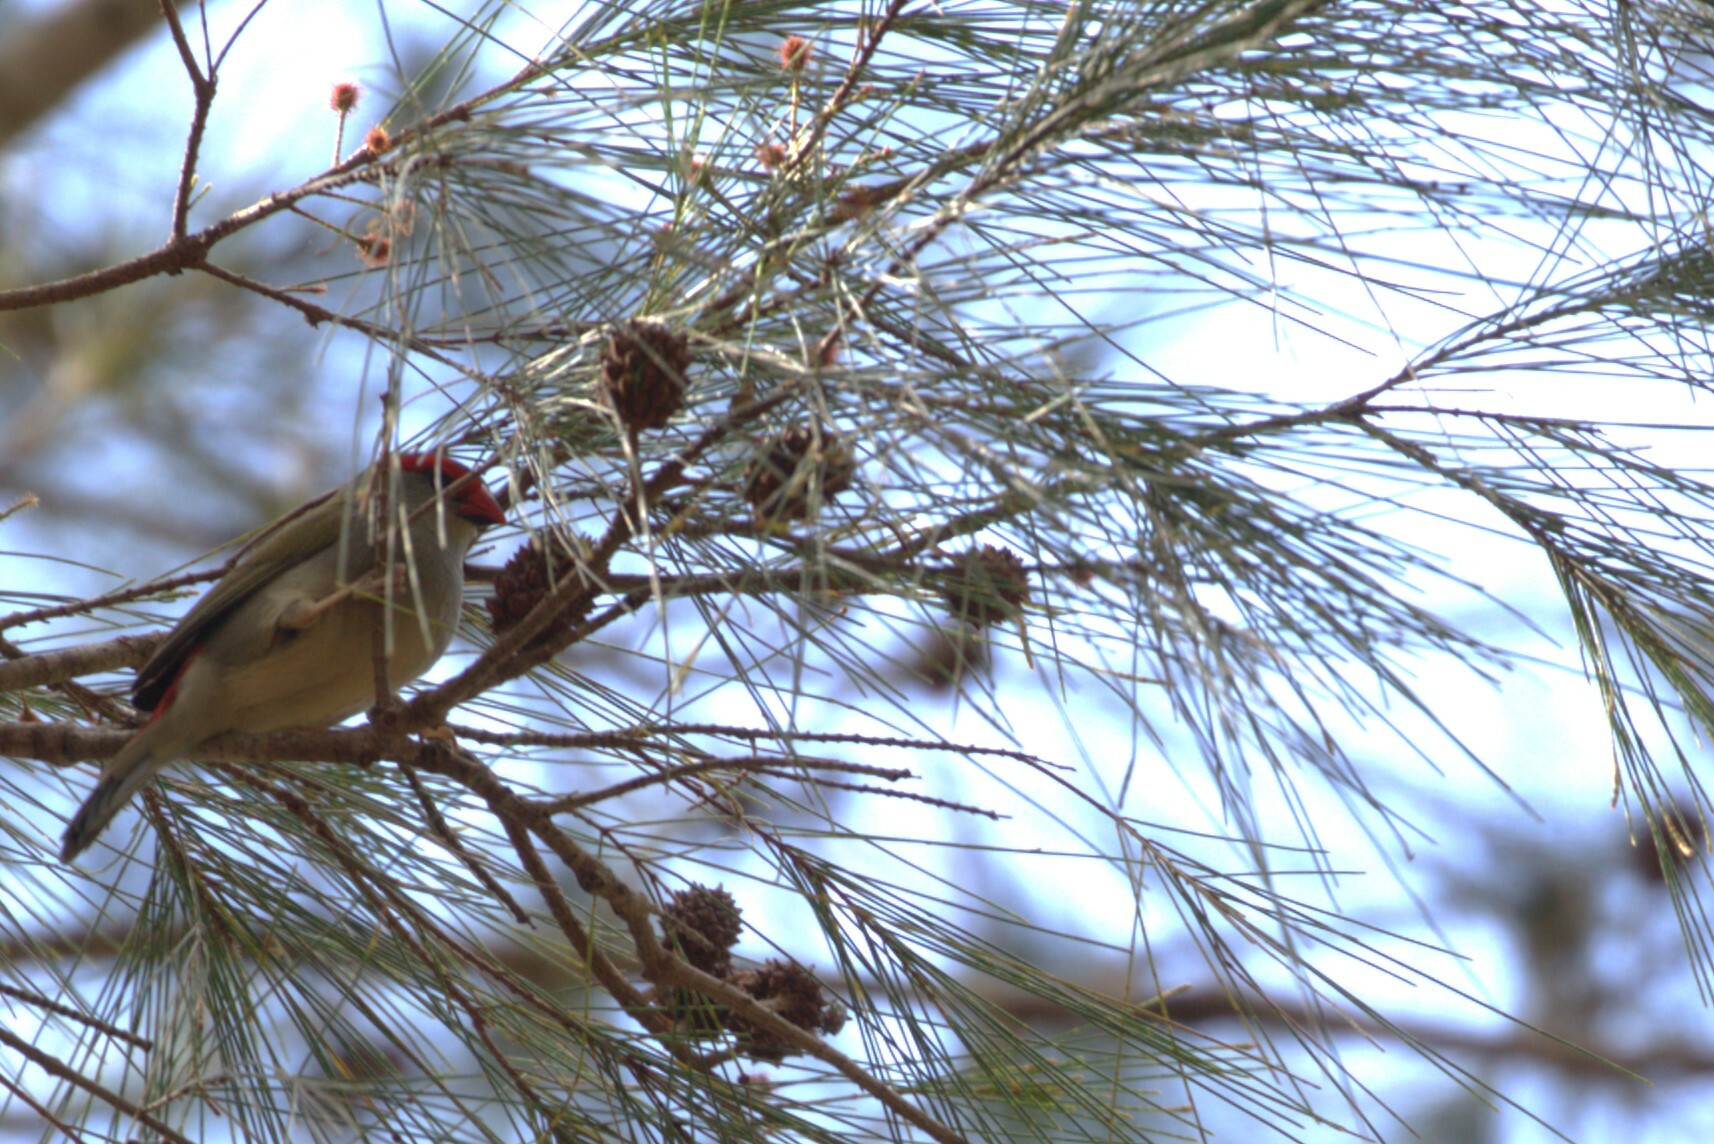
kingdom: Animalia
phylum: Chordata
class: Aves
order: Passeriformes
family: Estrildidae
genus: Neochmia
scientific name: Neochmia temporalis
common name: Red-browed finch
